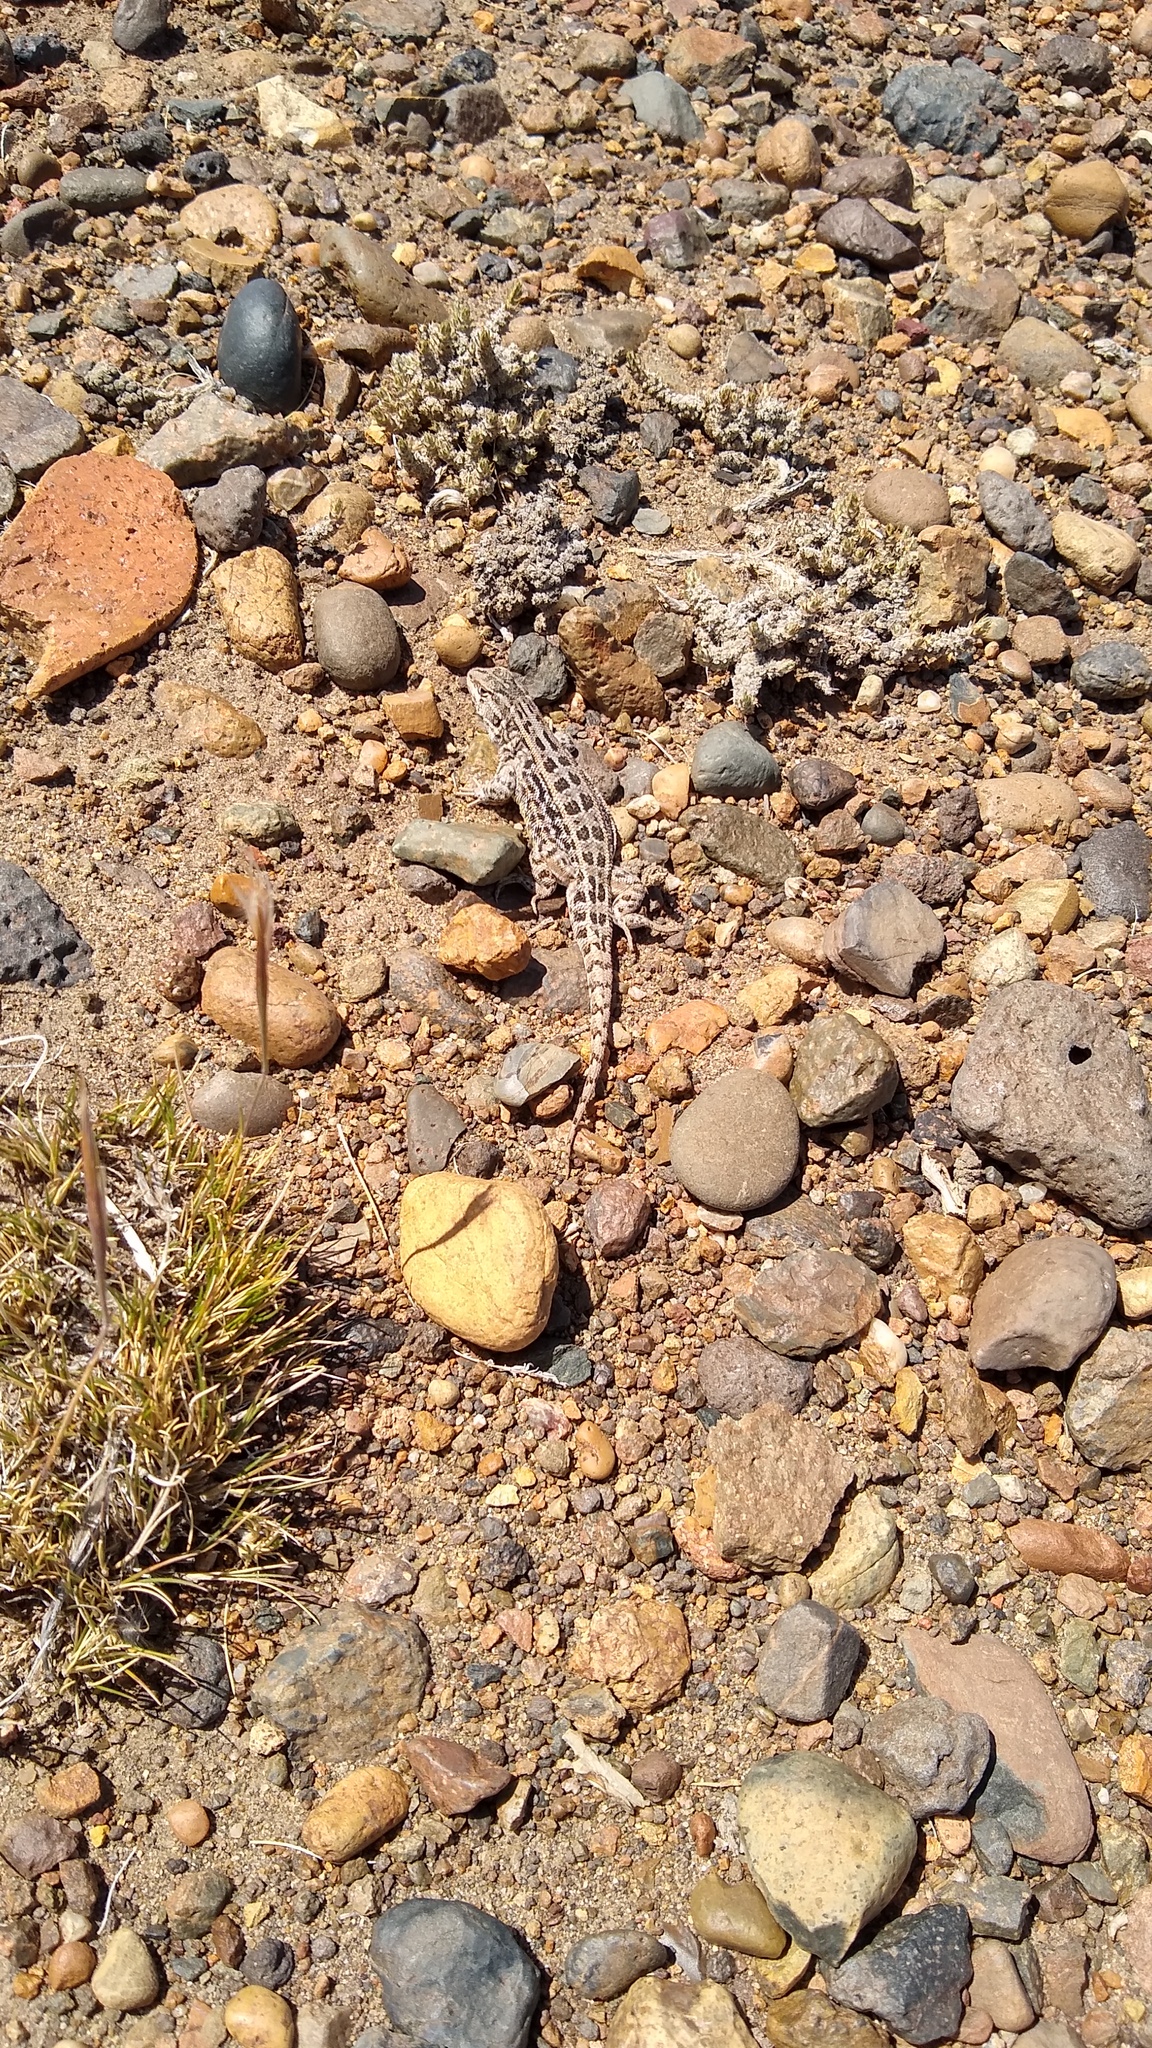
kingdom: Animalia
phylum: Chordata
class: Squamata
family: Liolaemidae
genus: Liolaemus
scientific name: Liolaemus avilai
